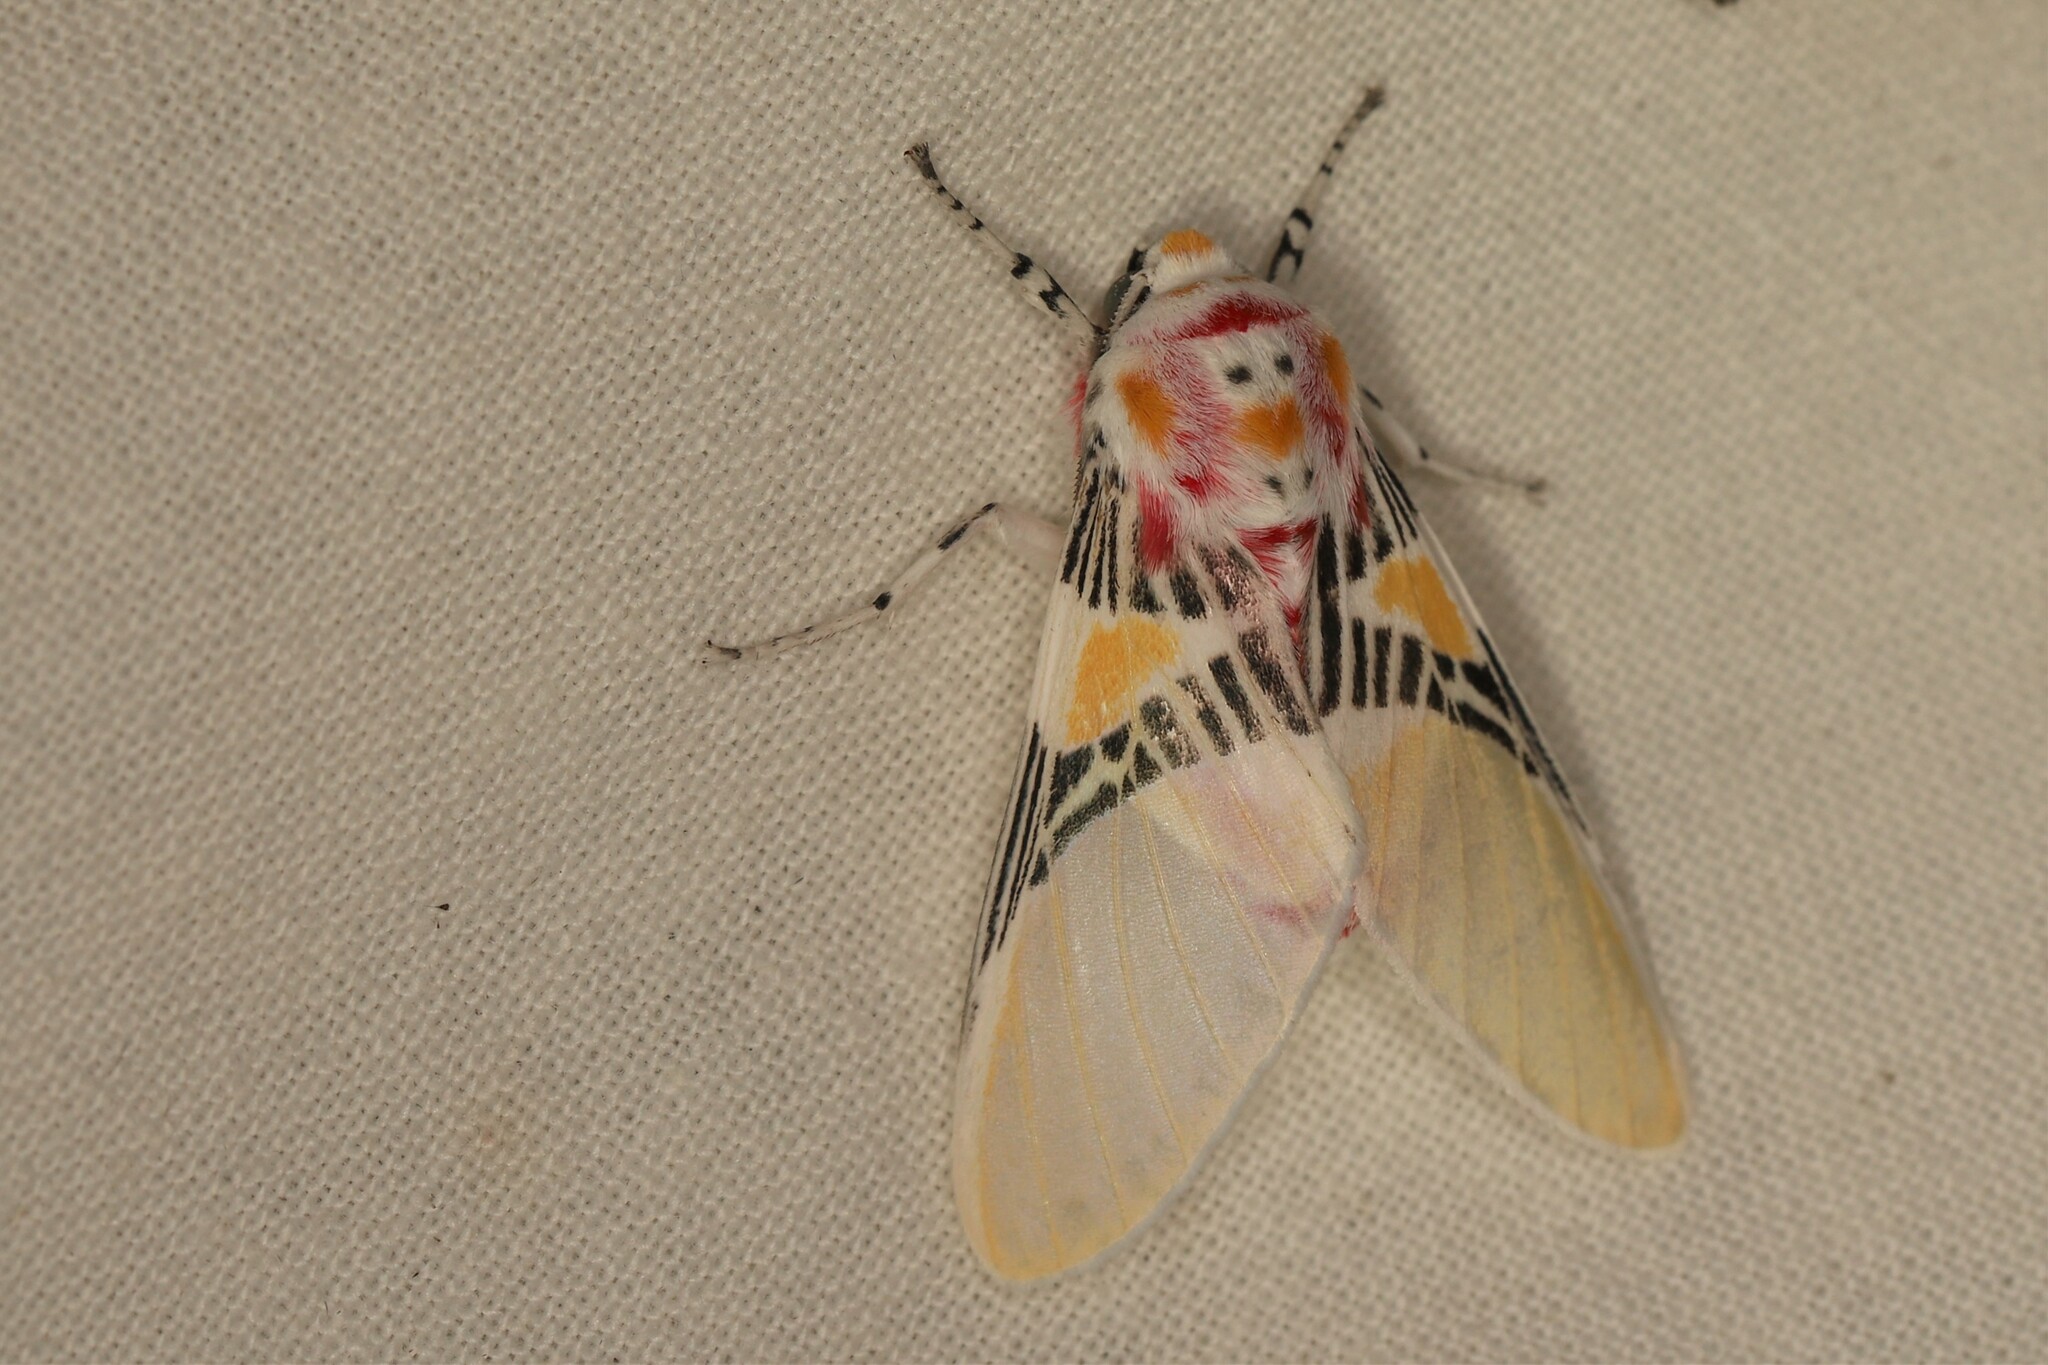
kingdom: Animalia
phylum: Arthropoda
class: Insecta
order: Lepidoptera
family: Erebidae
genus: Idalus
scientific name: Idalus herois
